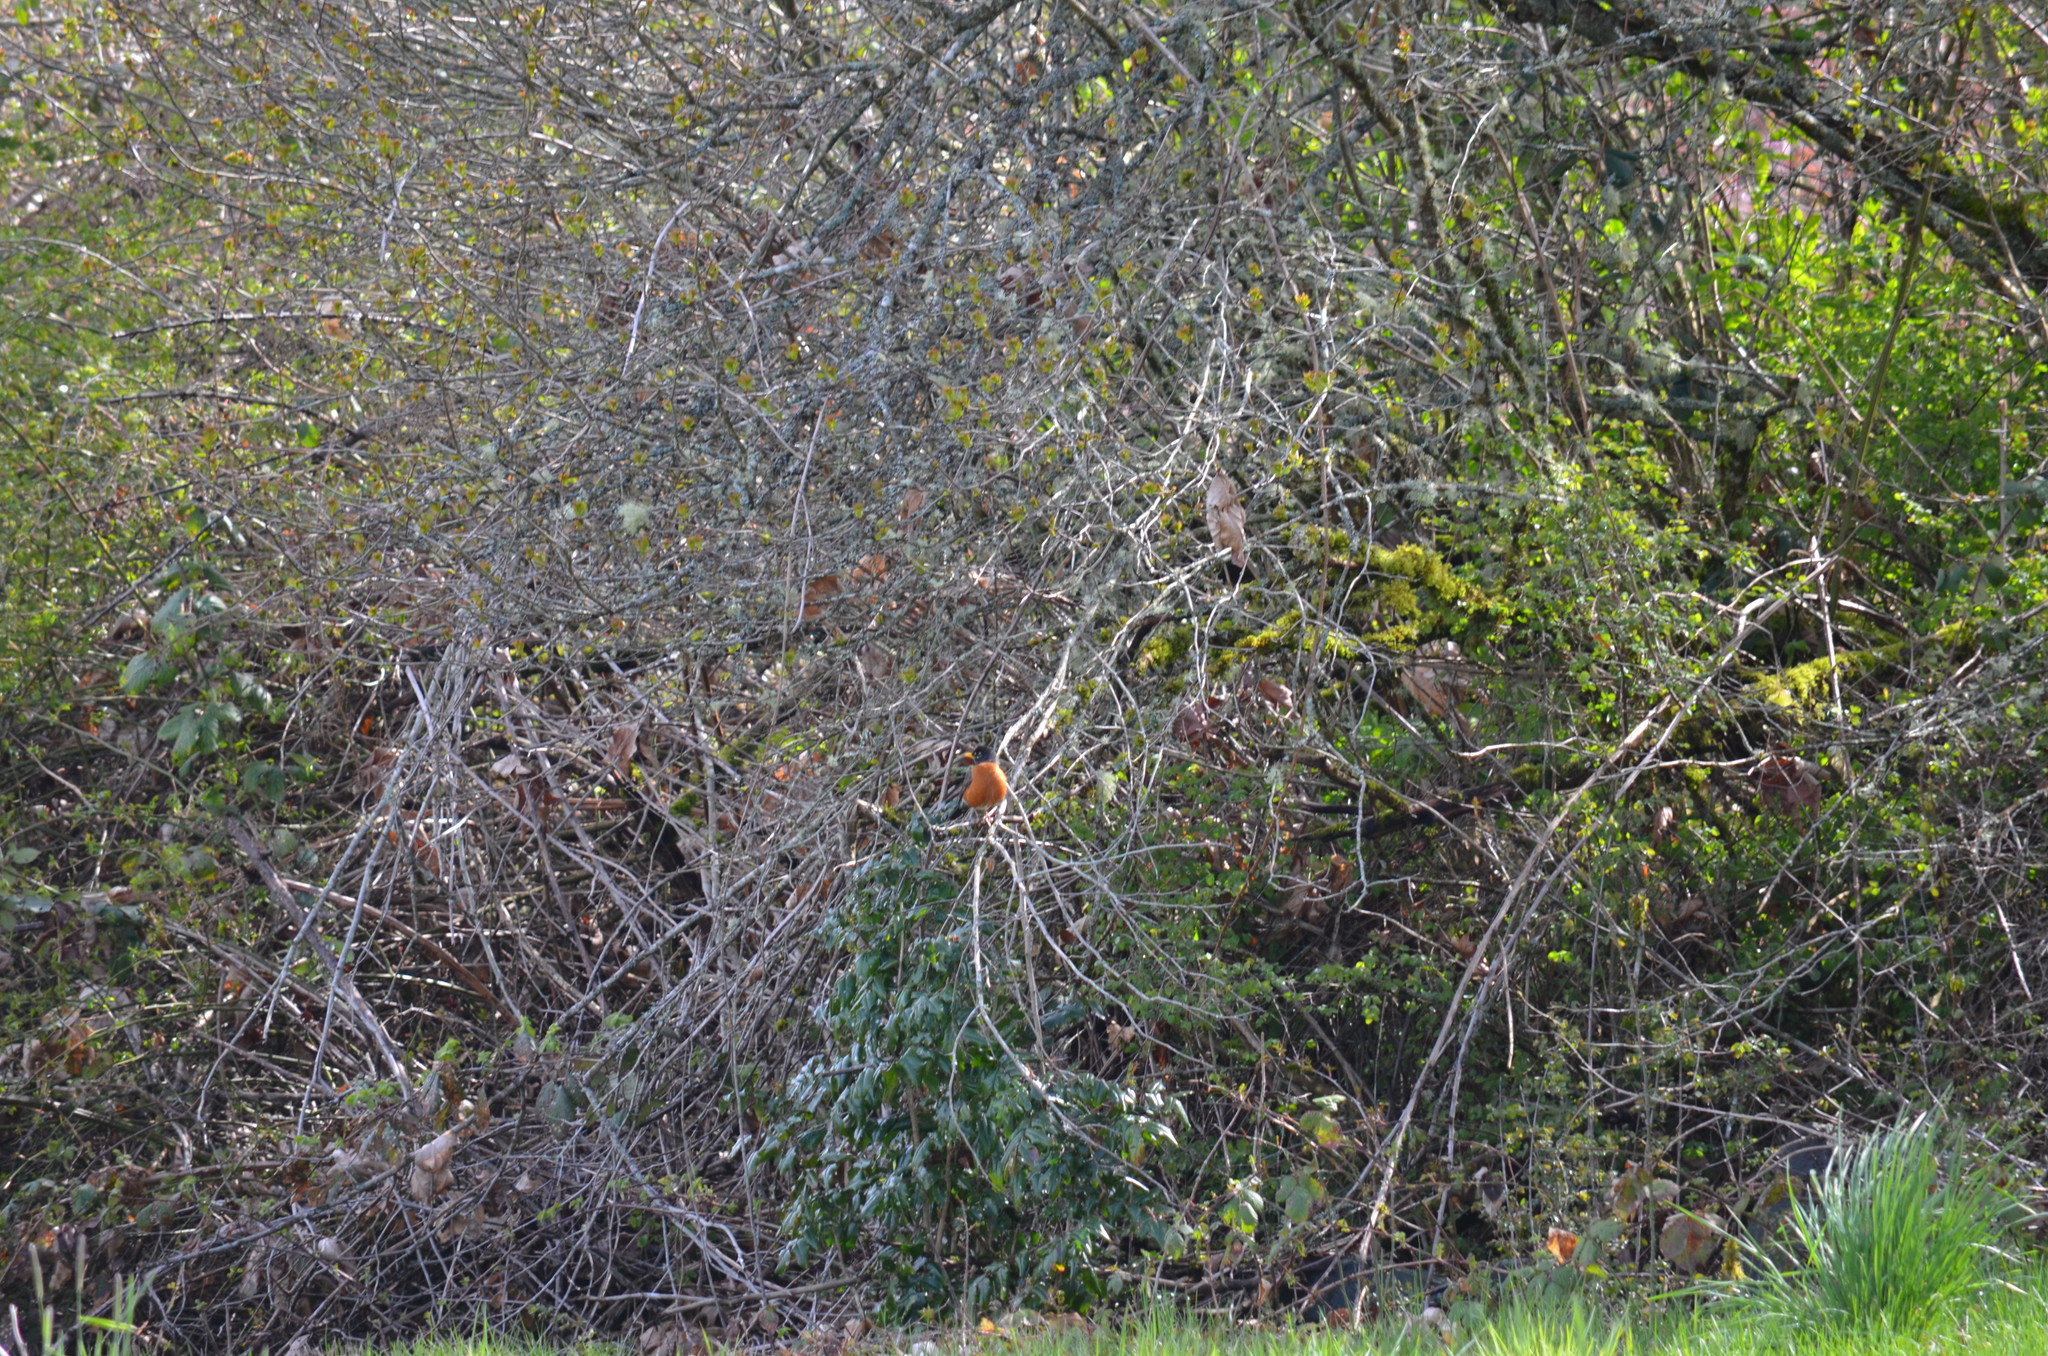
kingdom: Animalia
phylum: Chordata
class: Aves
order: Passeriformes
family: Turdidae
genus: Turdus
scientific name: Turdus migratorius
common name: American robin
